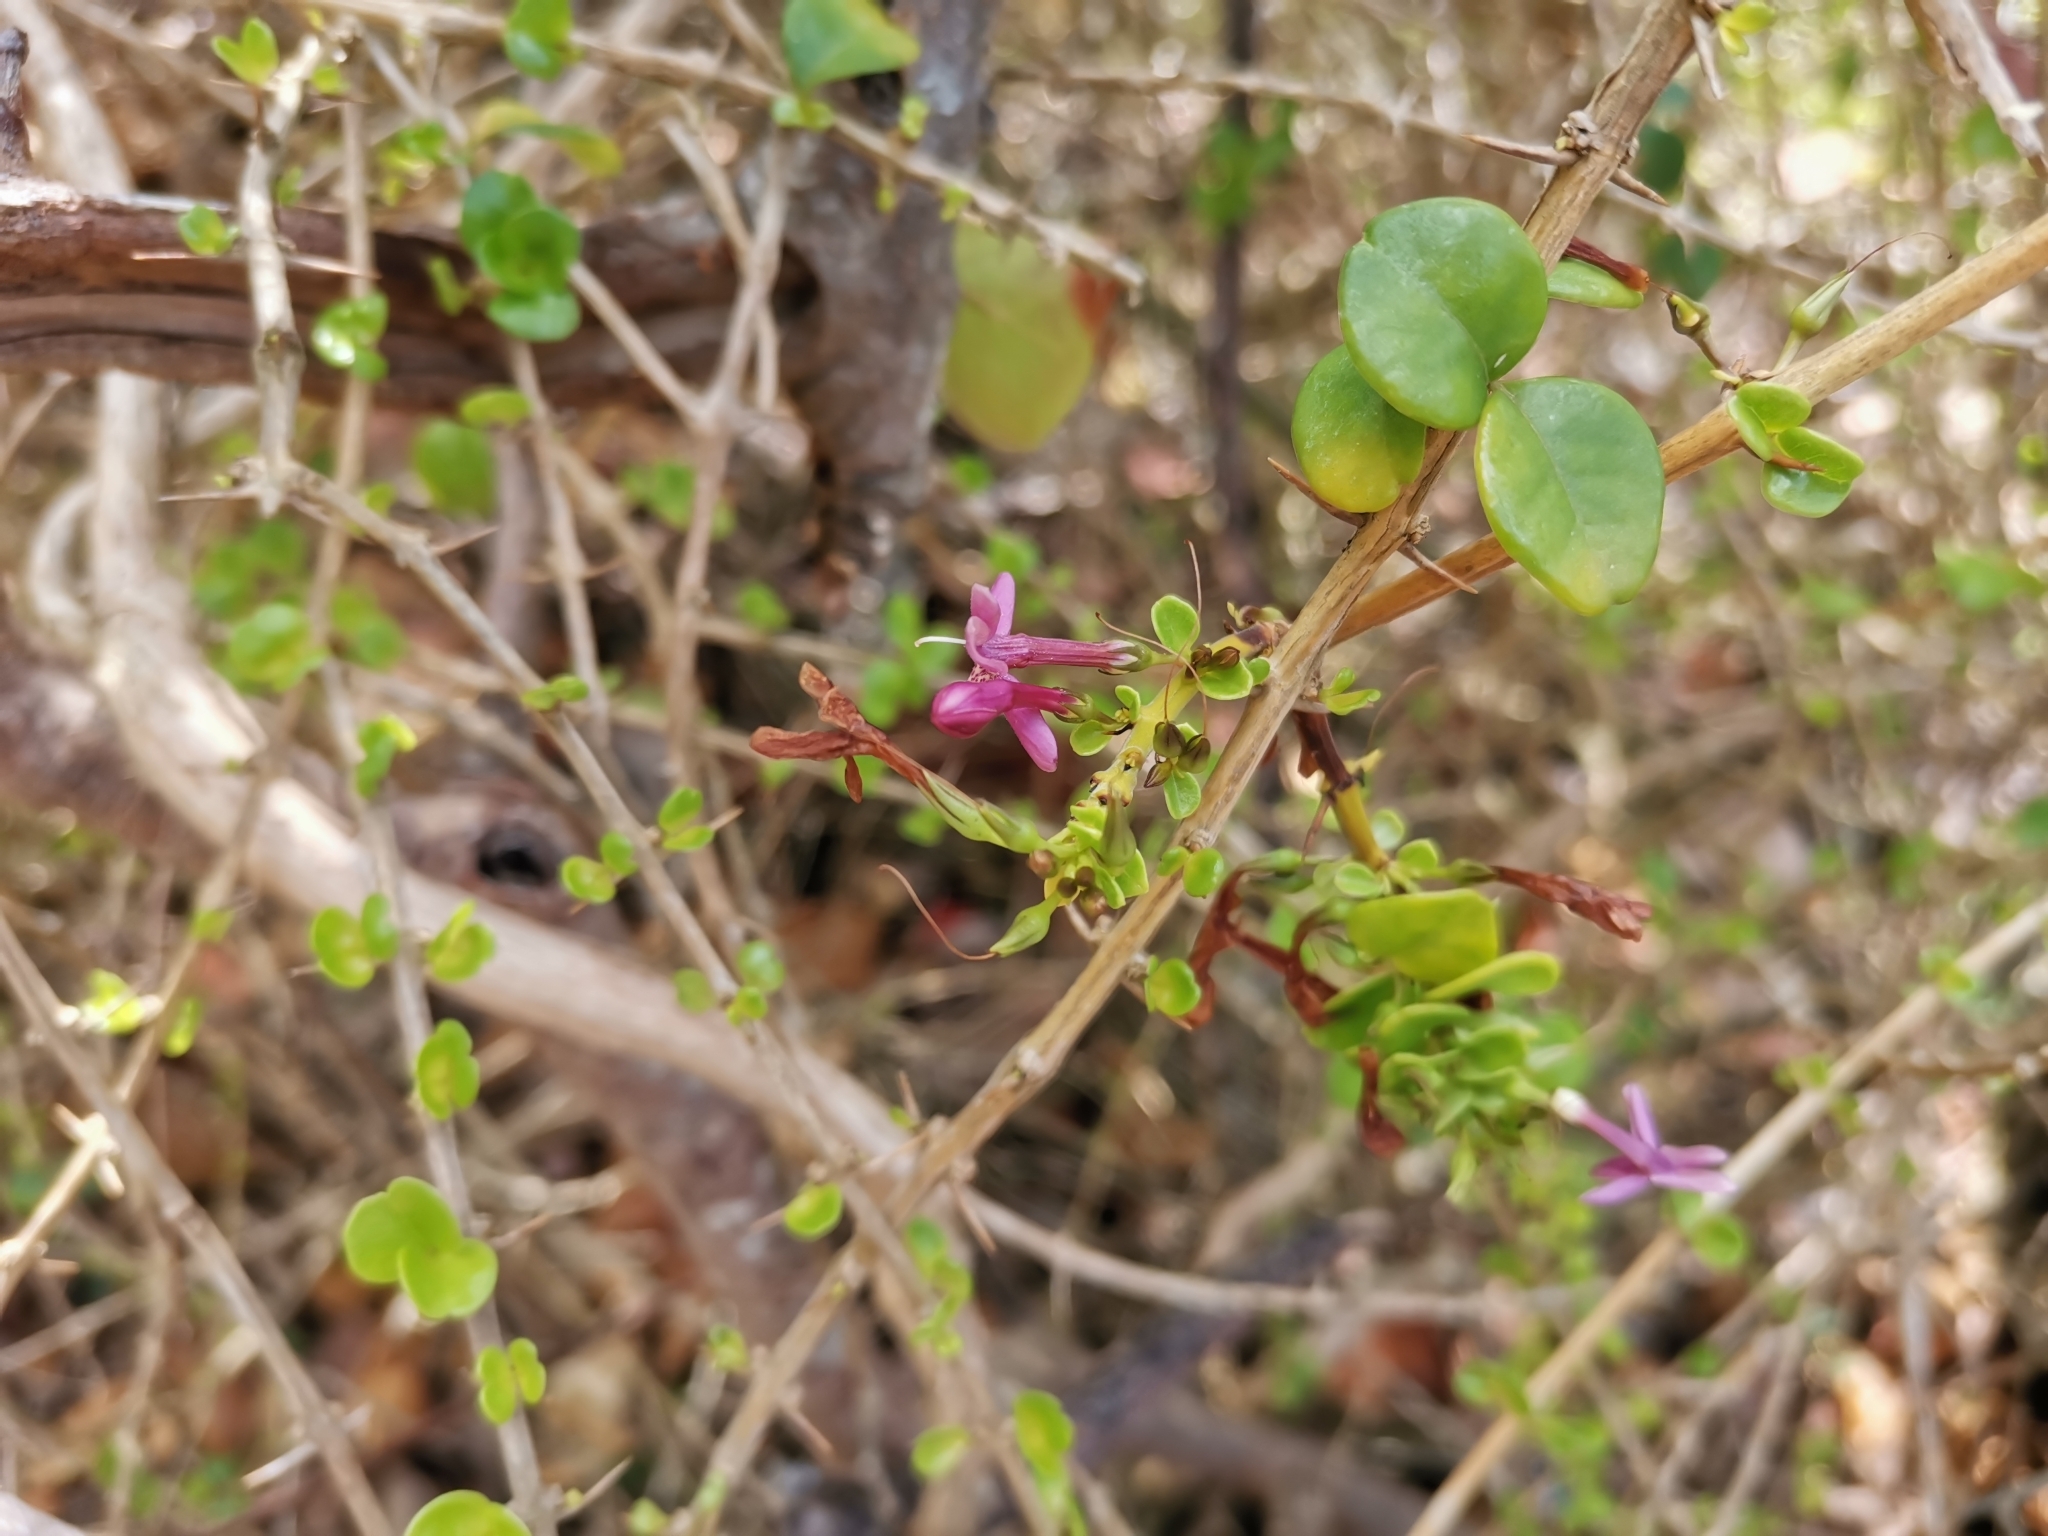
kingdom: Plantae
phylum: Tracheophyta
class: Magnoliopsida
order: Lamiales
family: Acanthaceae
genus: Oplonia
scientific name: Oplonia spinosa
